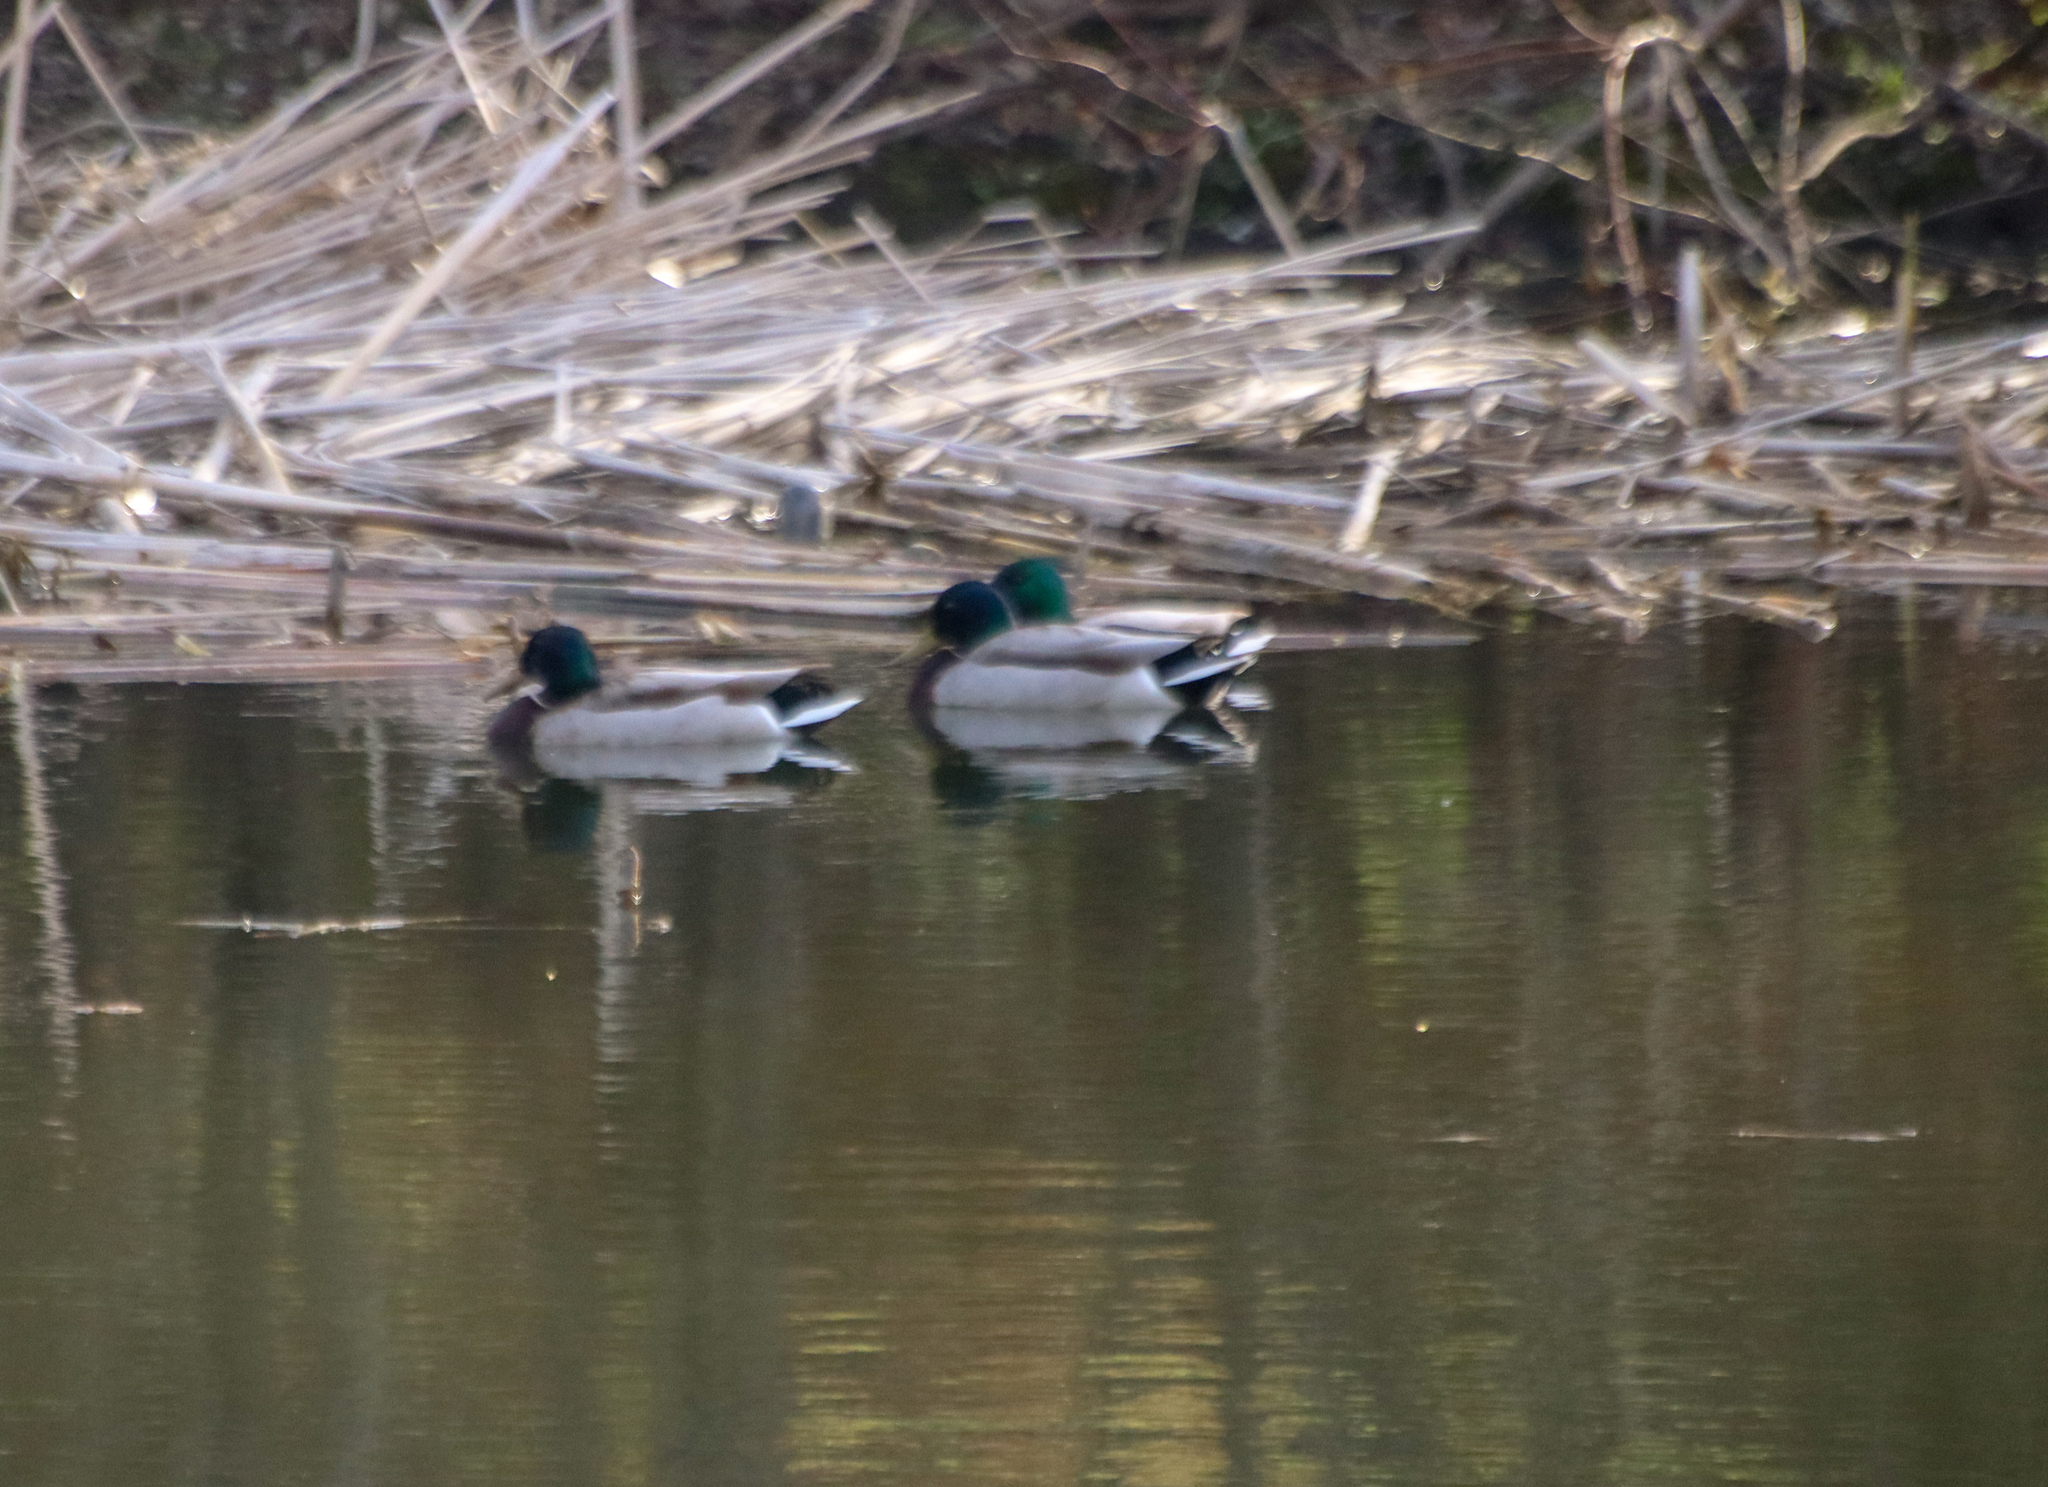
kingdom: Animalia
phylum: Chordata
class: Aves
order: Anseriformes
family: Anatidae
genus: Anas
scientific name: Anas platyrhynchos
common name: Mallard
